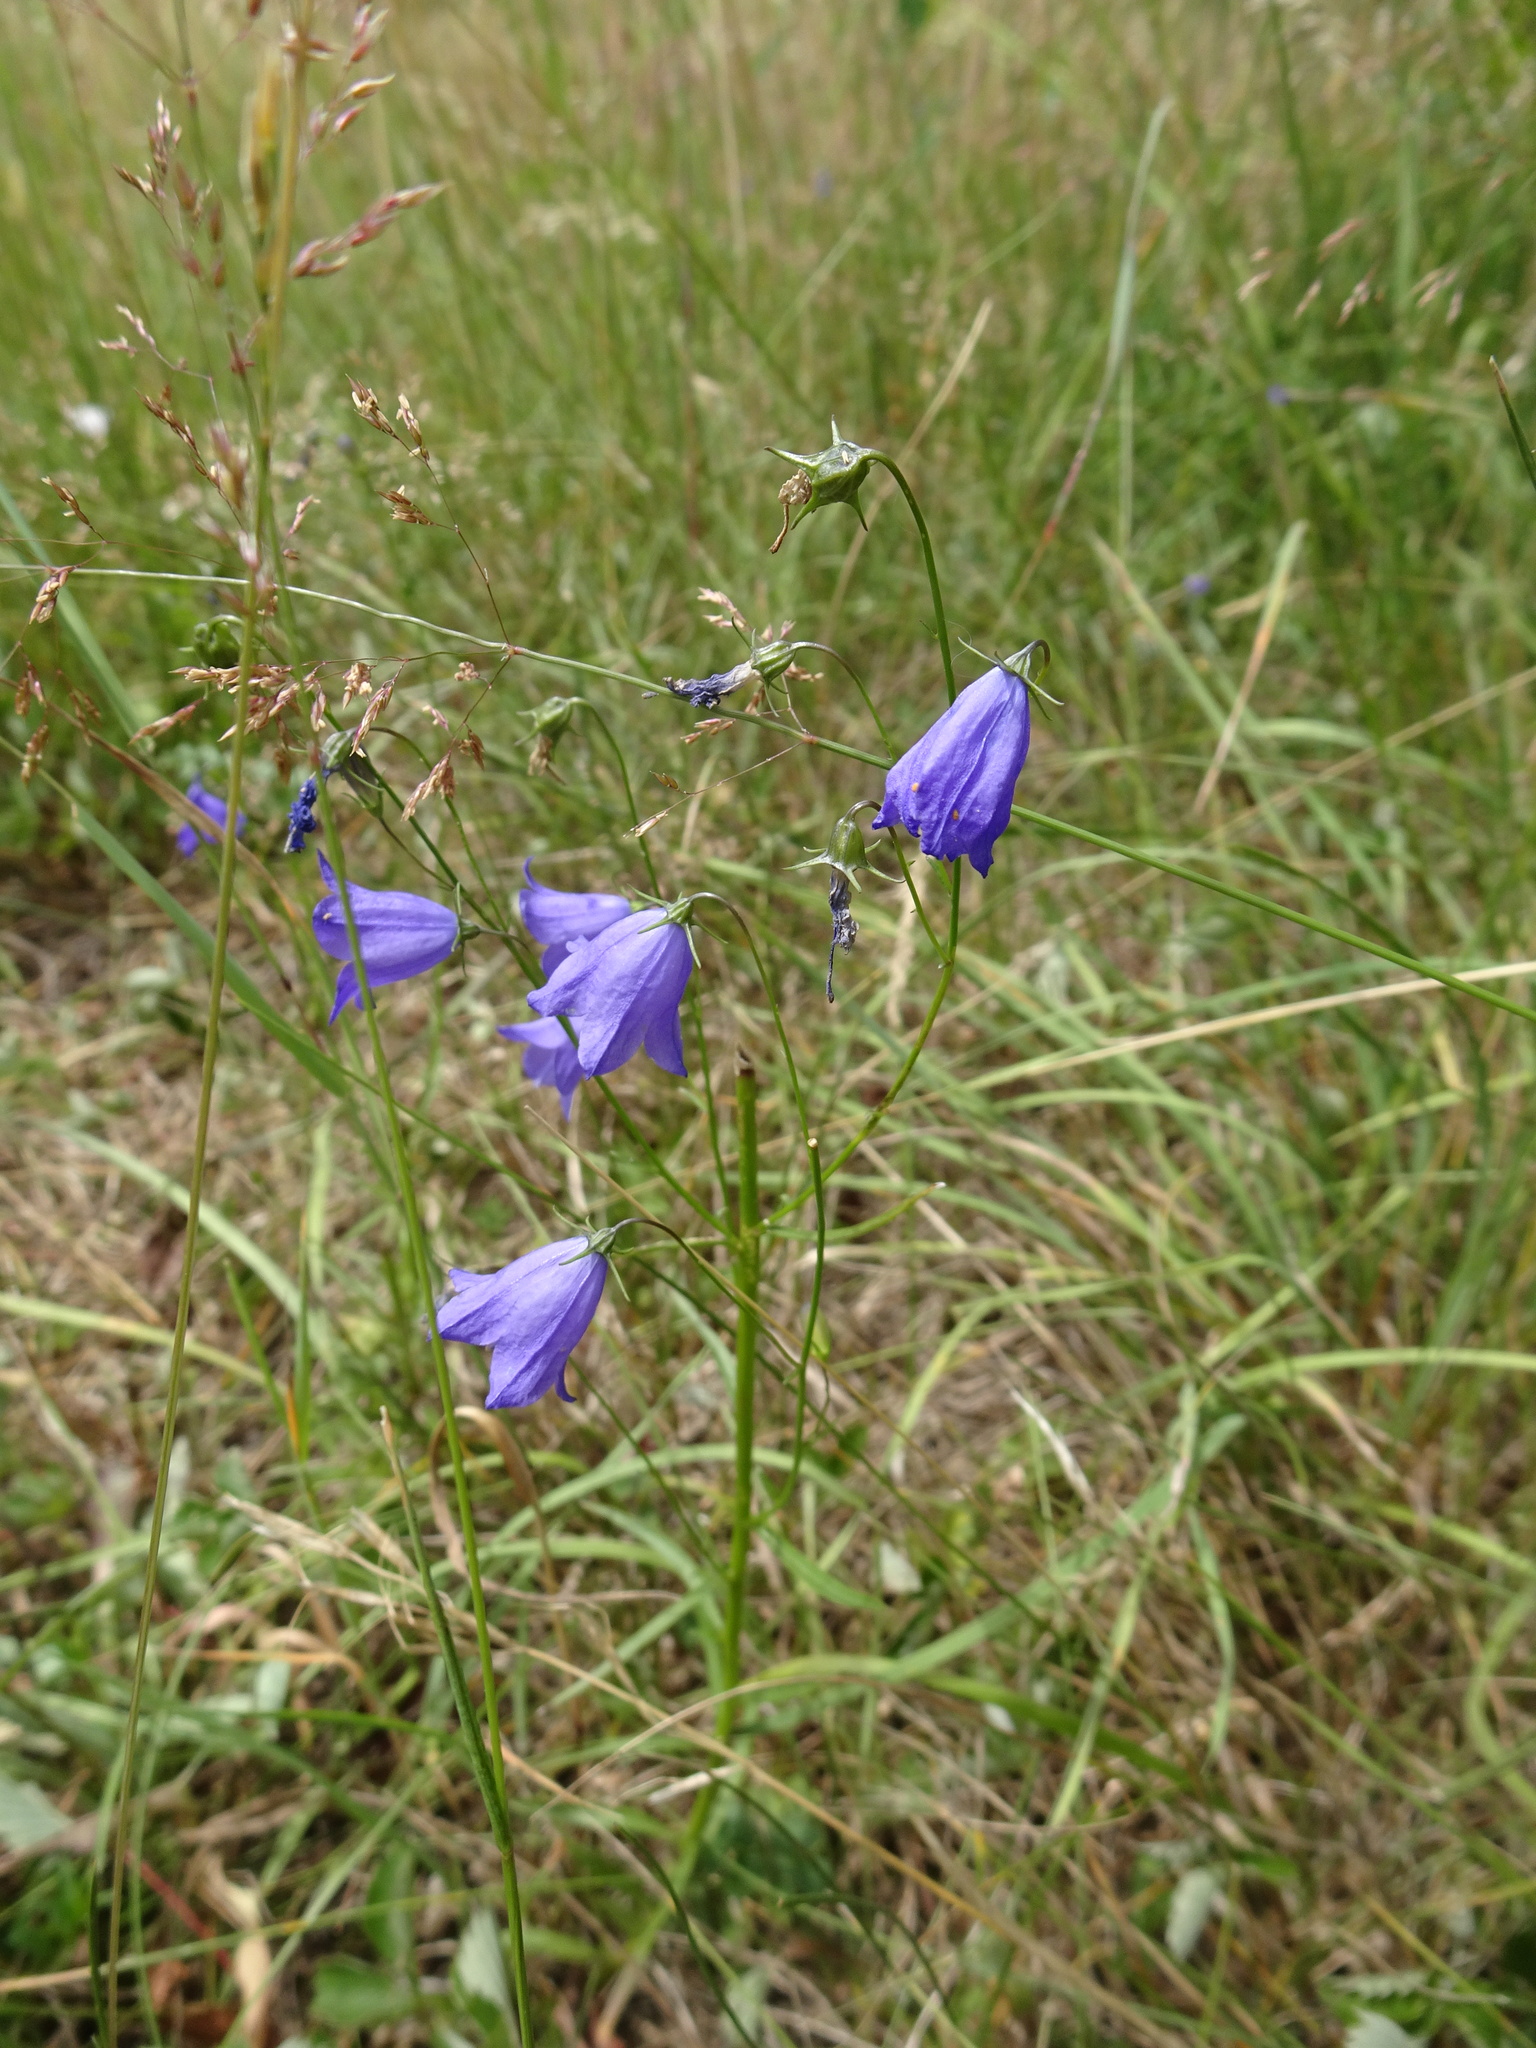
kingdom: Plantae
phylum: Tracheophyta
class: Magnoliopsida
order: Asterales
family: Campanulaceae
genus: Campanula
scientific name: Campanula rotundifolia
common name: Harebell
